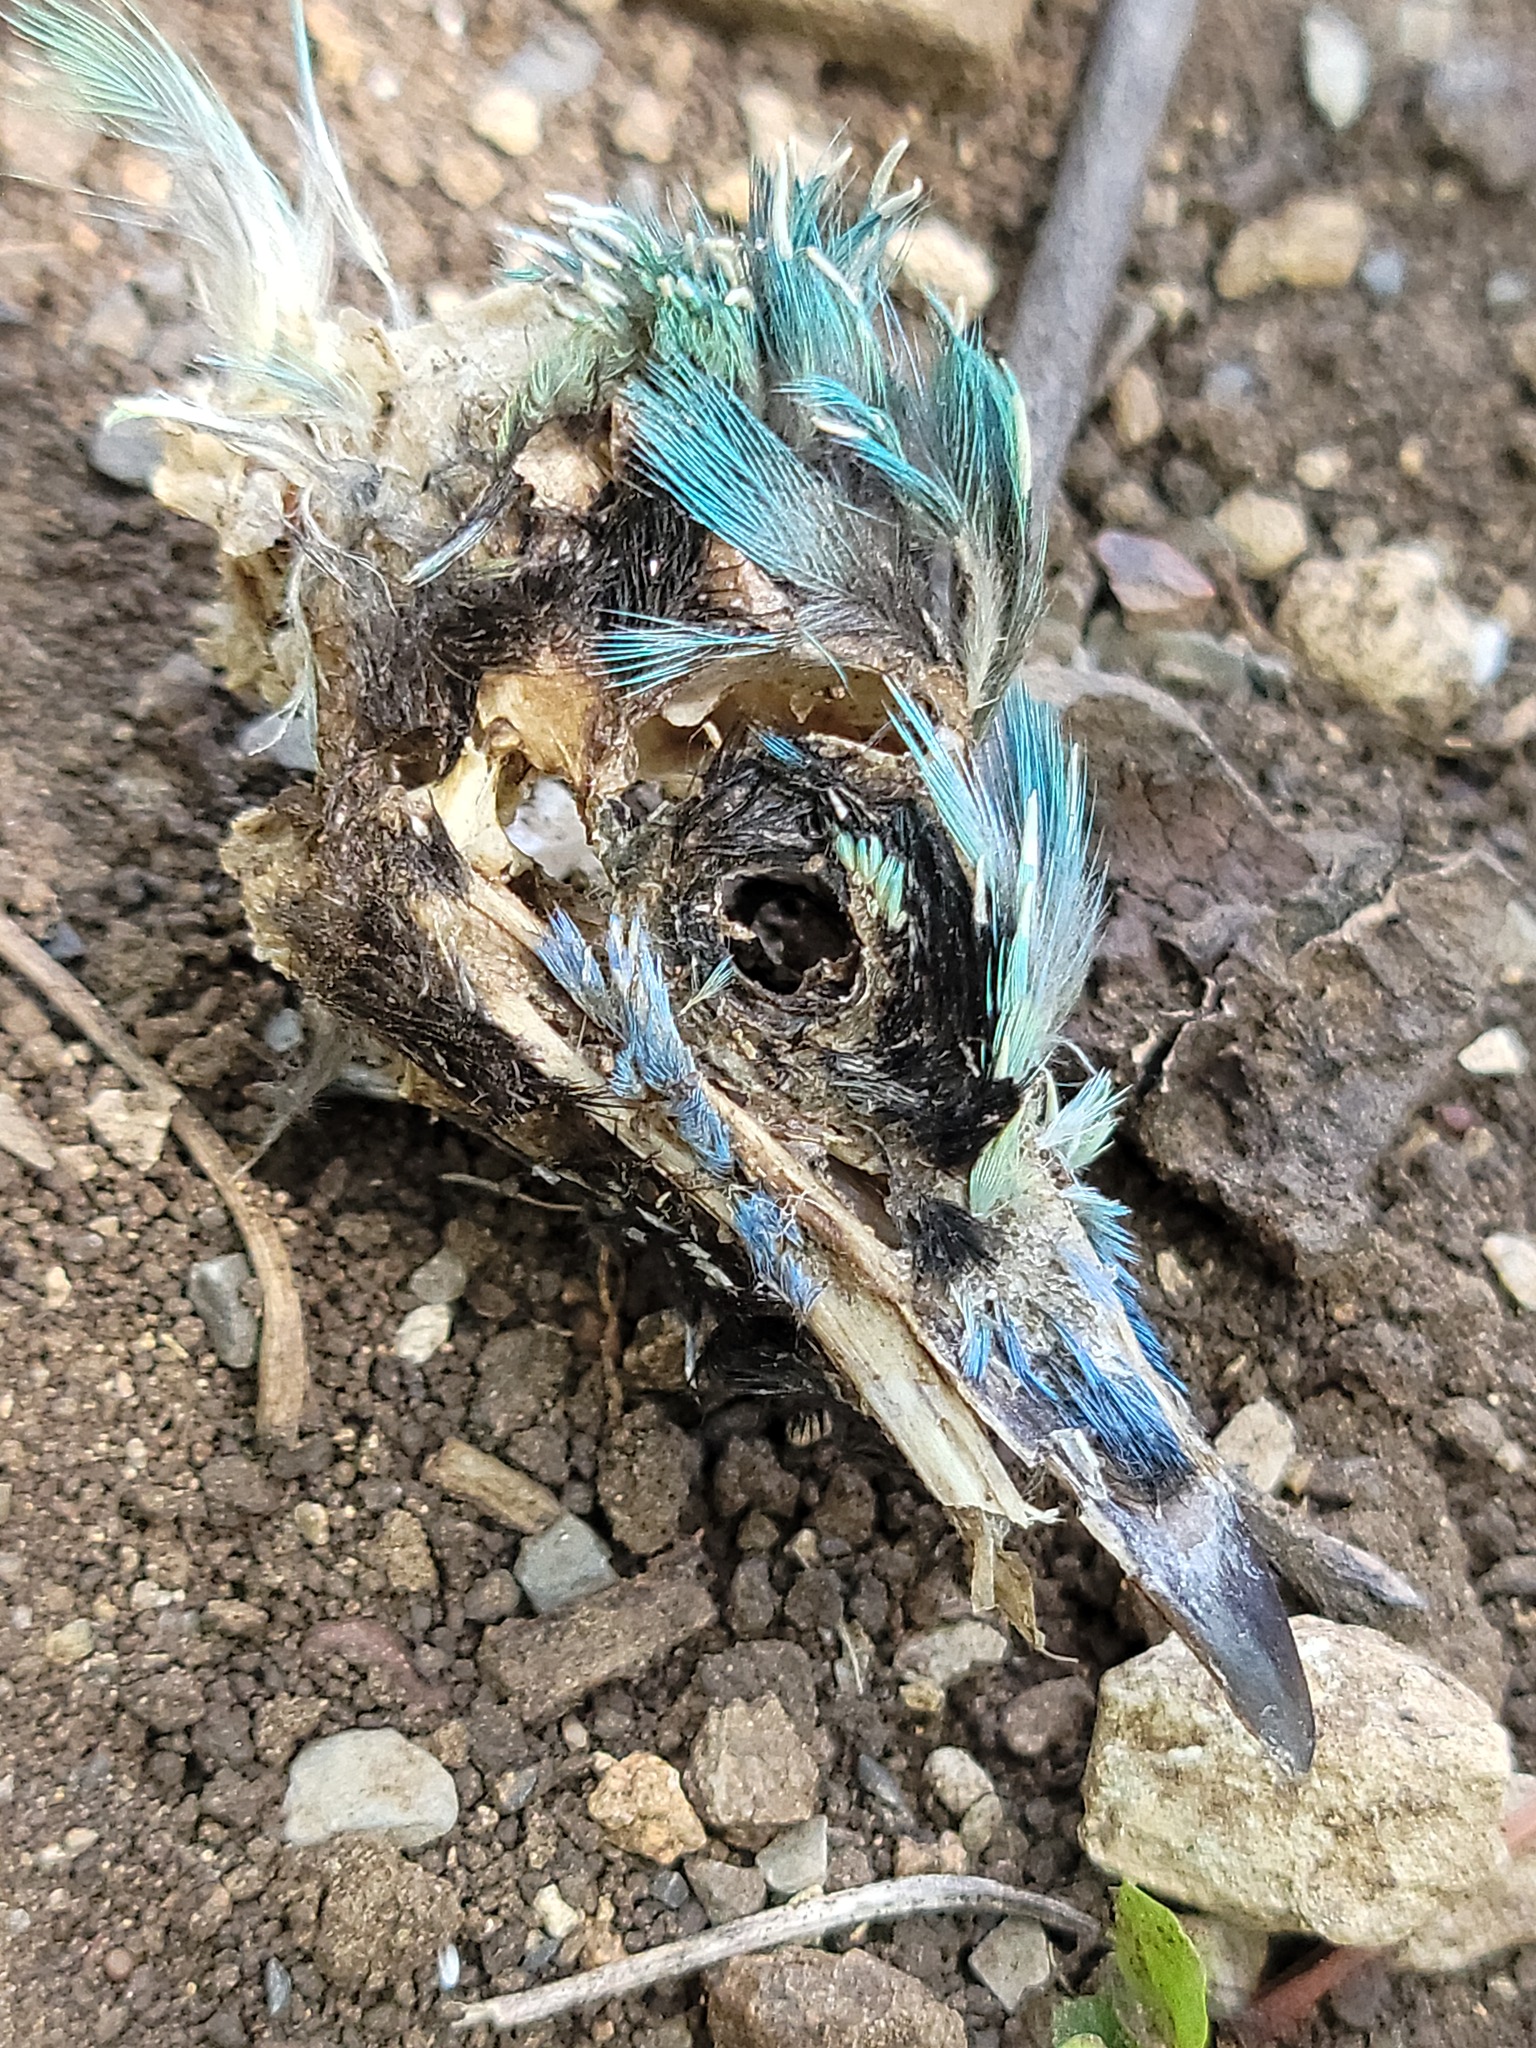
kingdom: Animalia
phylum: Chordata
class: Aves
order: Passeriformes
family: Corvidae
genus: Cyanocorax
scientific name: Cyanocorax yncas
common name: Green jay
